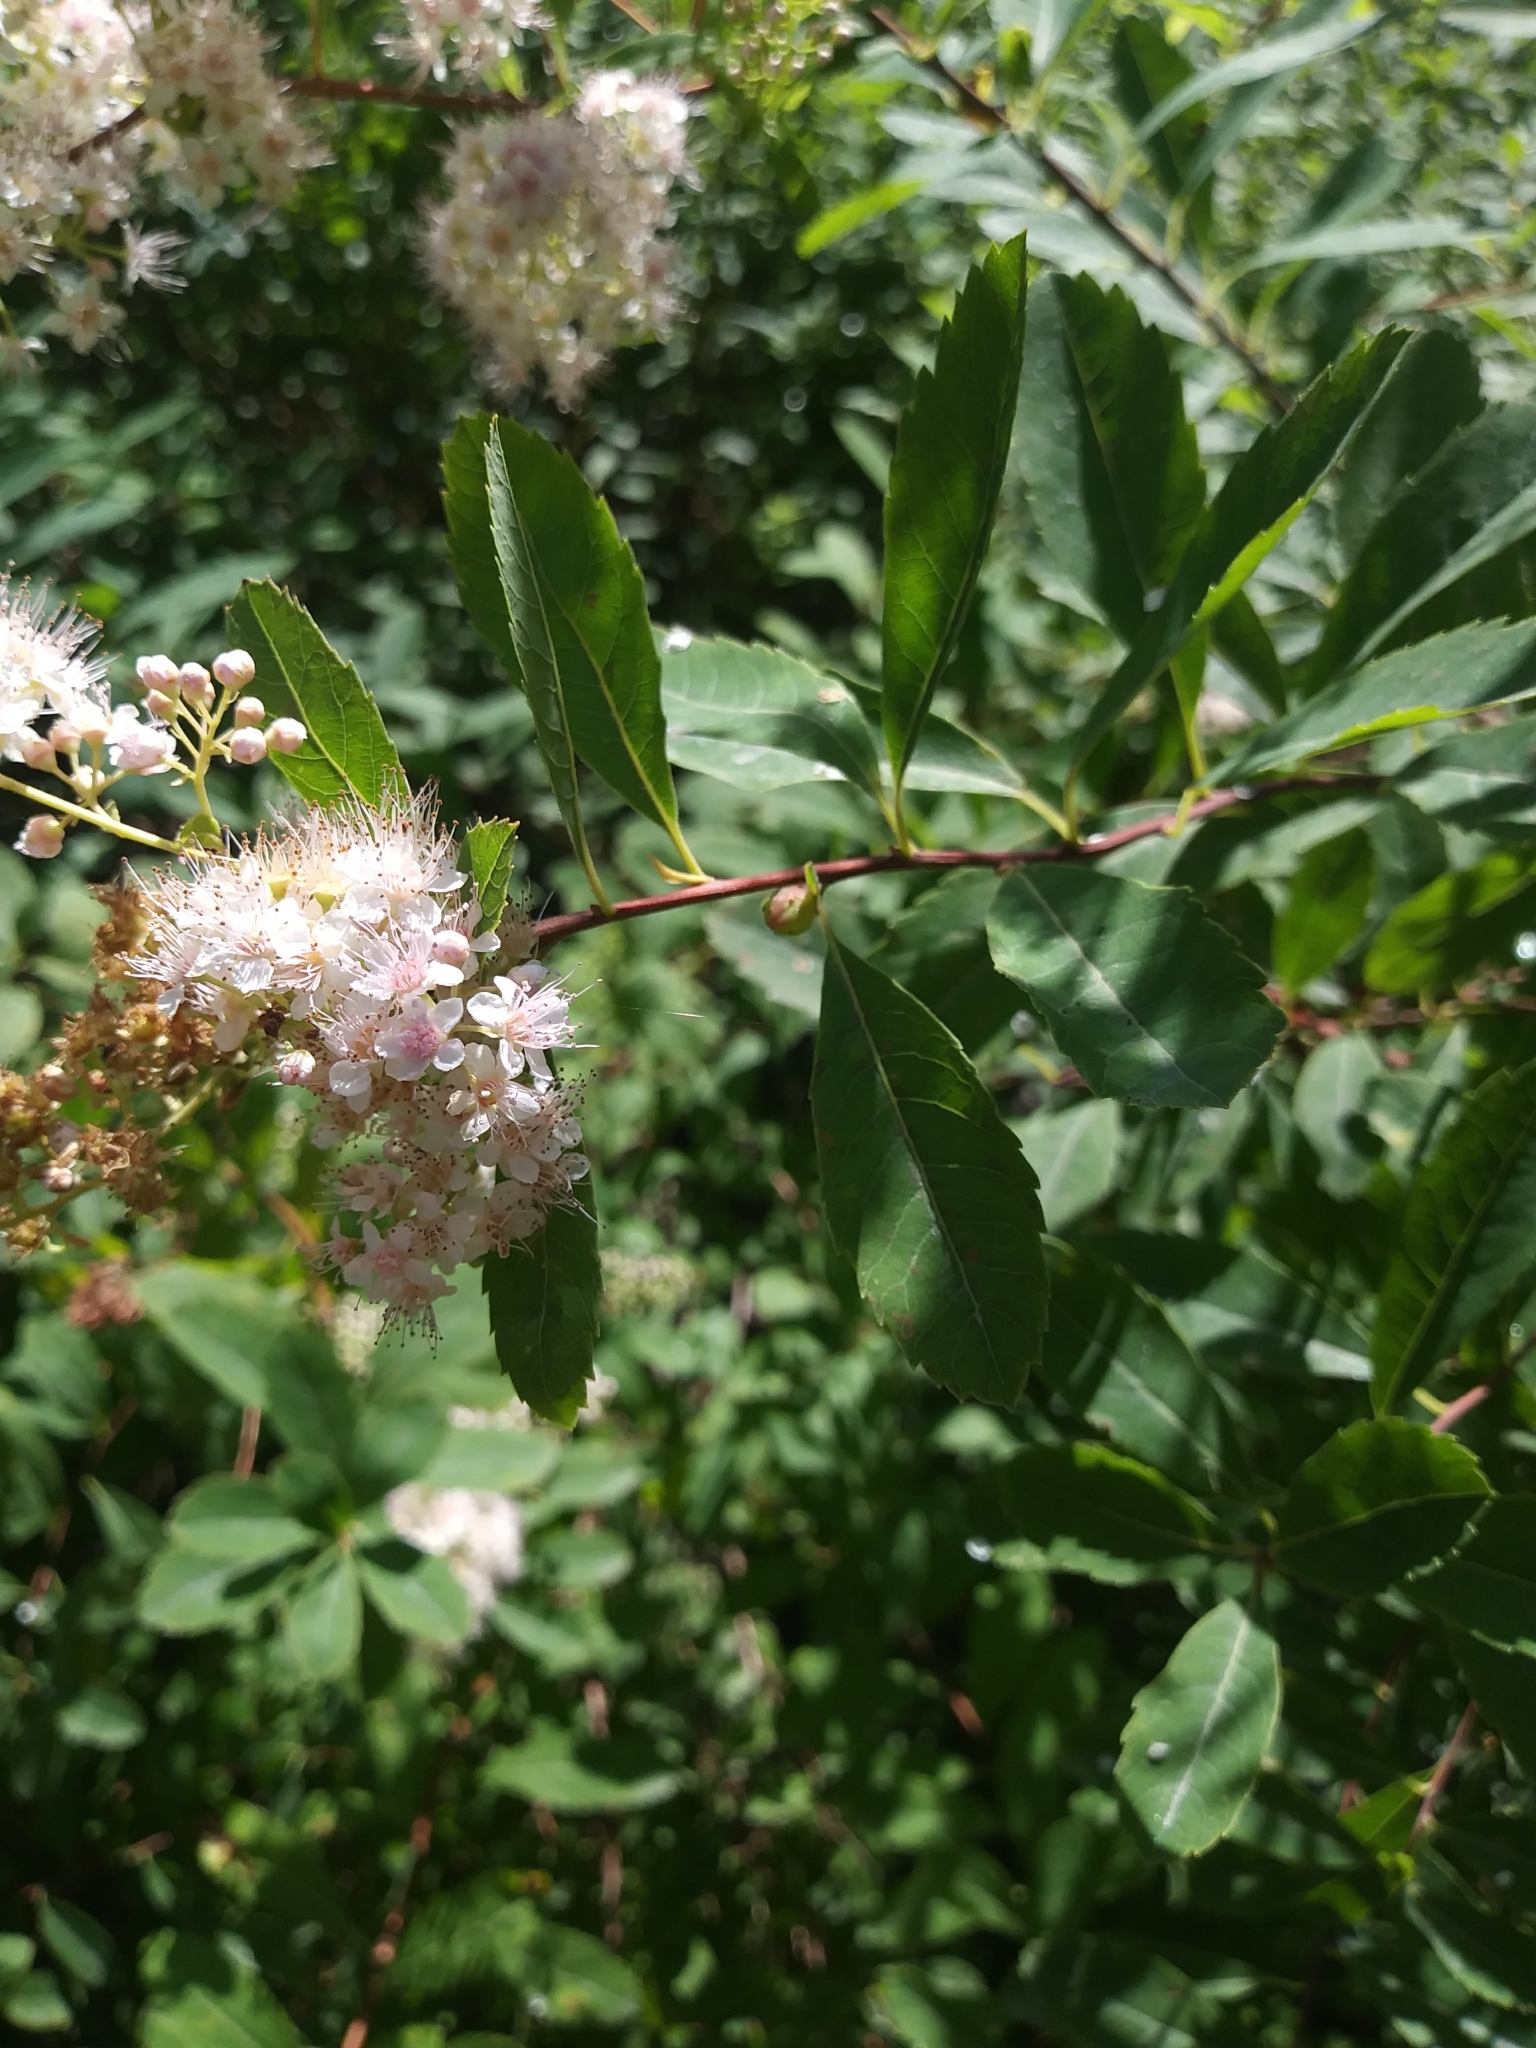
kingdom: Plantae
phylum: Tracheophyta
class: Magnoliopsida
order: Rosales
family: Rosaceae
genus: Spiraea
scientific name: Spiraea alba
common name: Pale bridewort
